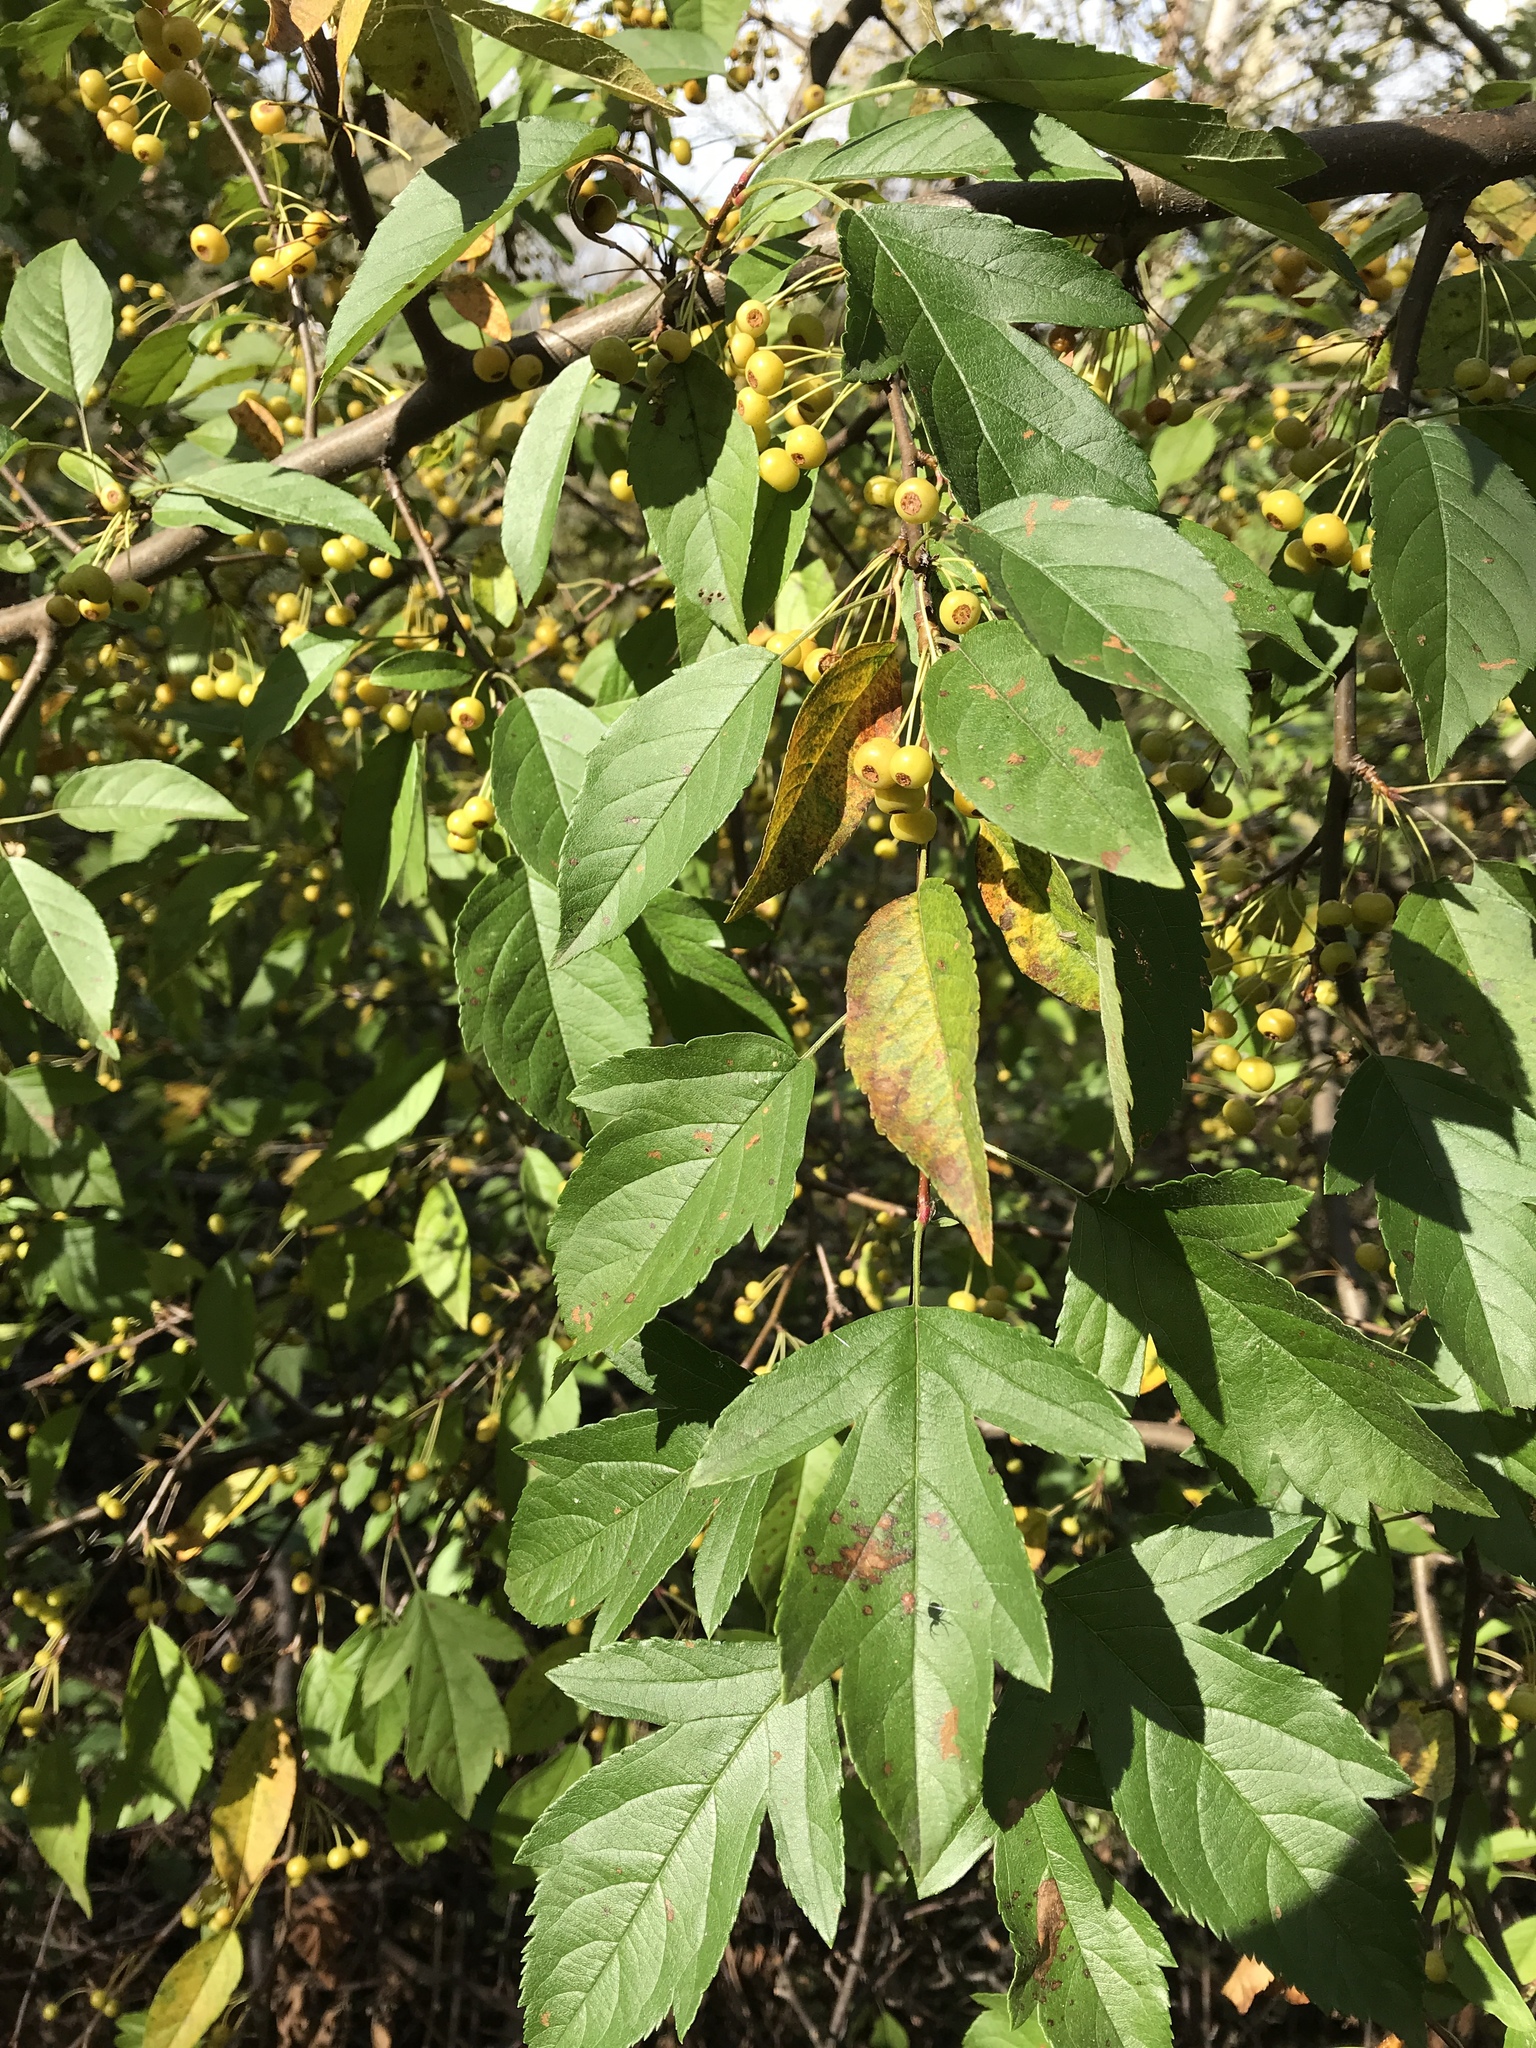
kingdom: Plantae
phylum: Tracheophyta
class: Magnoliopsida
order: Rosales
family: Rosaceae
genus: Malus
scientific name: Malus toringo
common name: Japanese crabapple
